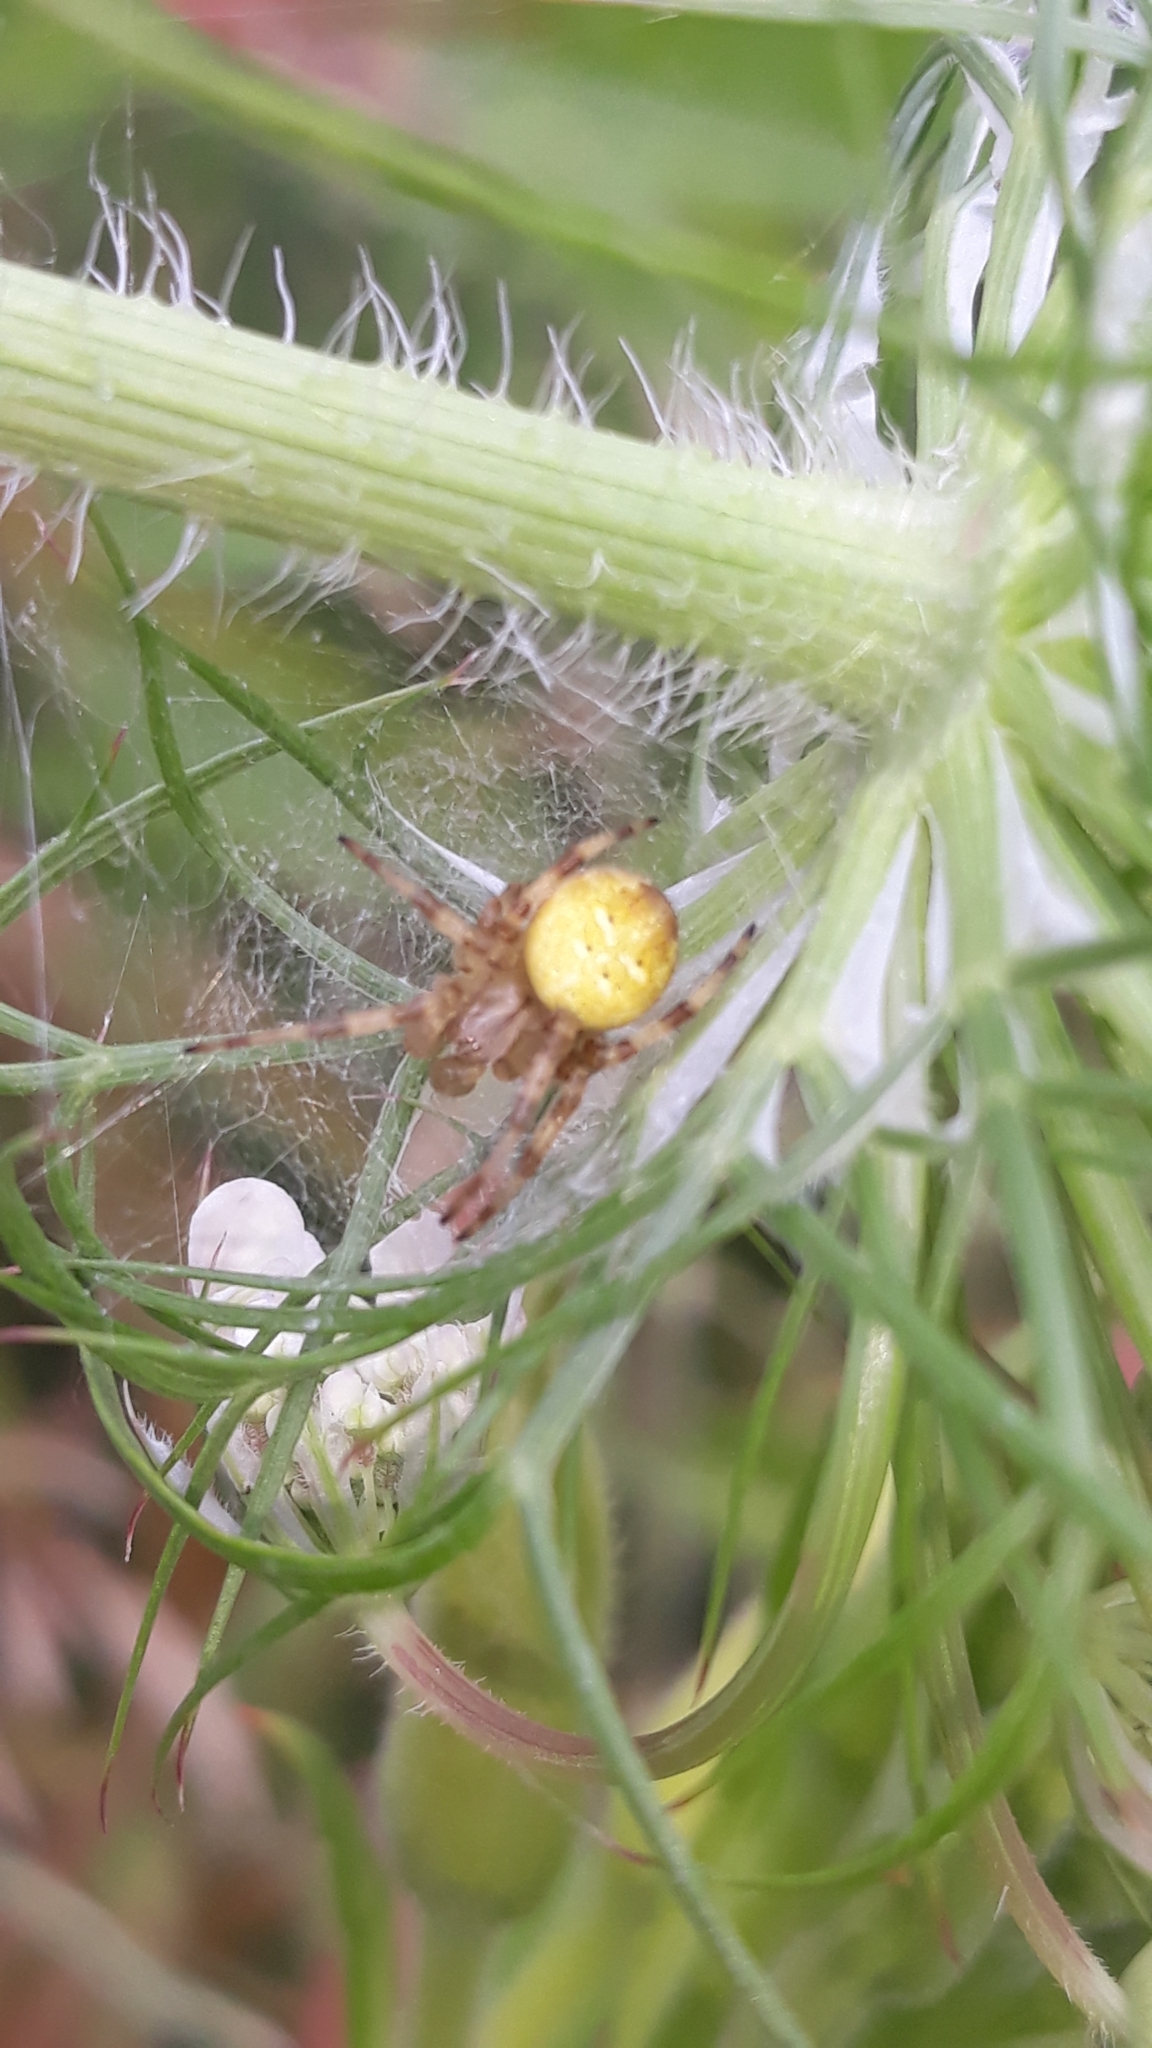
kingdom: Animalia
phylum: Arthropoda
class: Arachnida
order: Araneae
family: Araneidae
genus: Araneus
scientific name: Araneus quadratus
